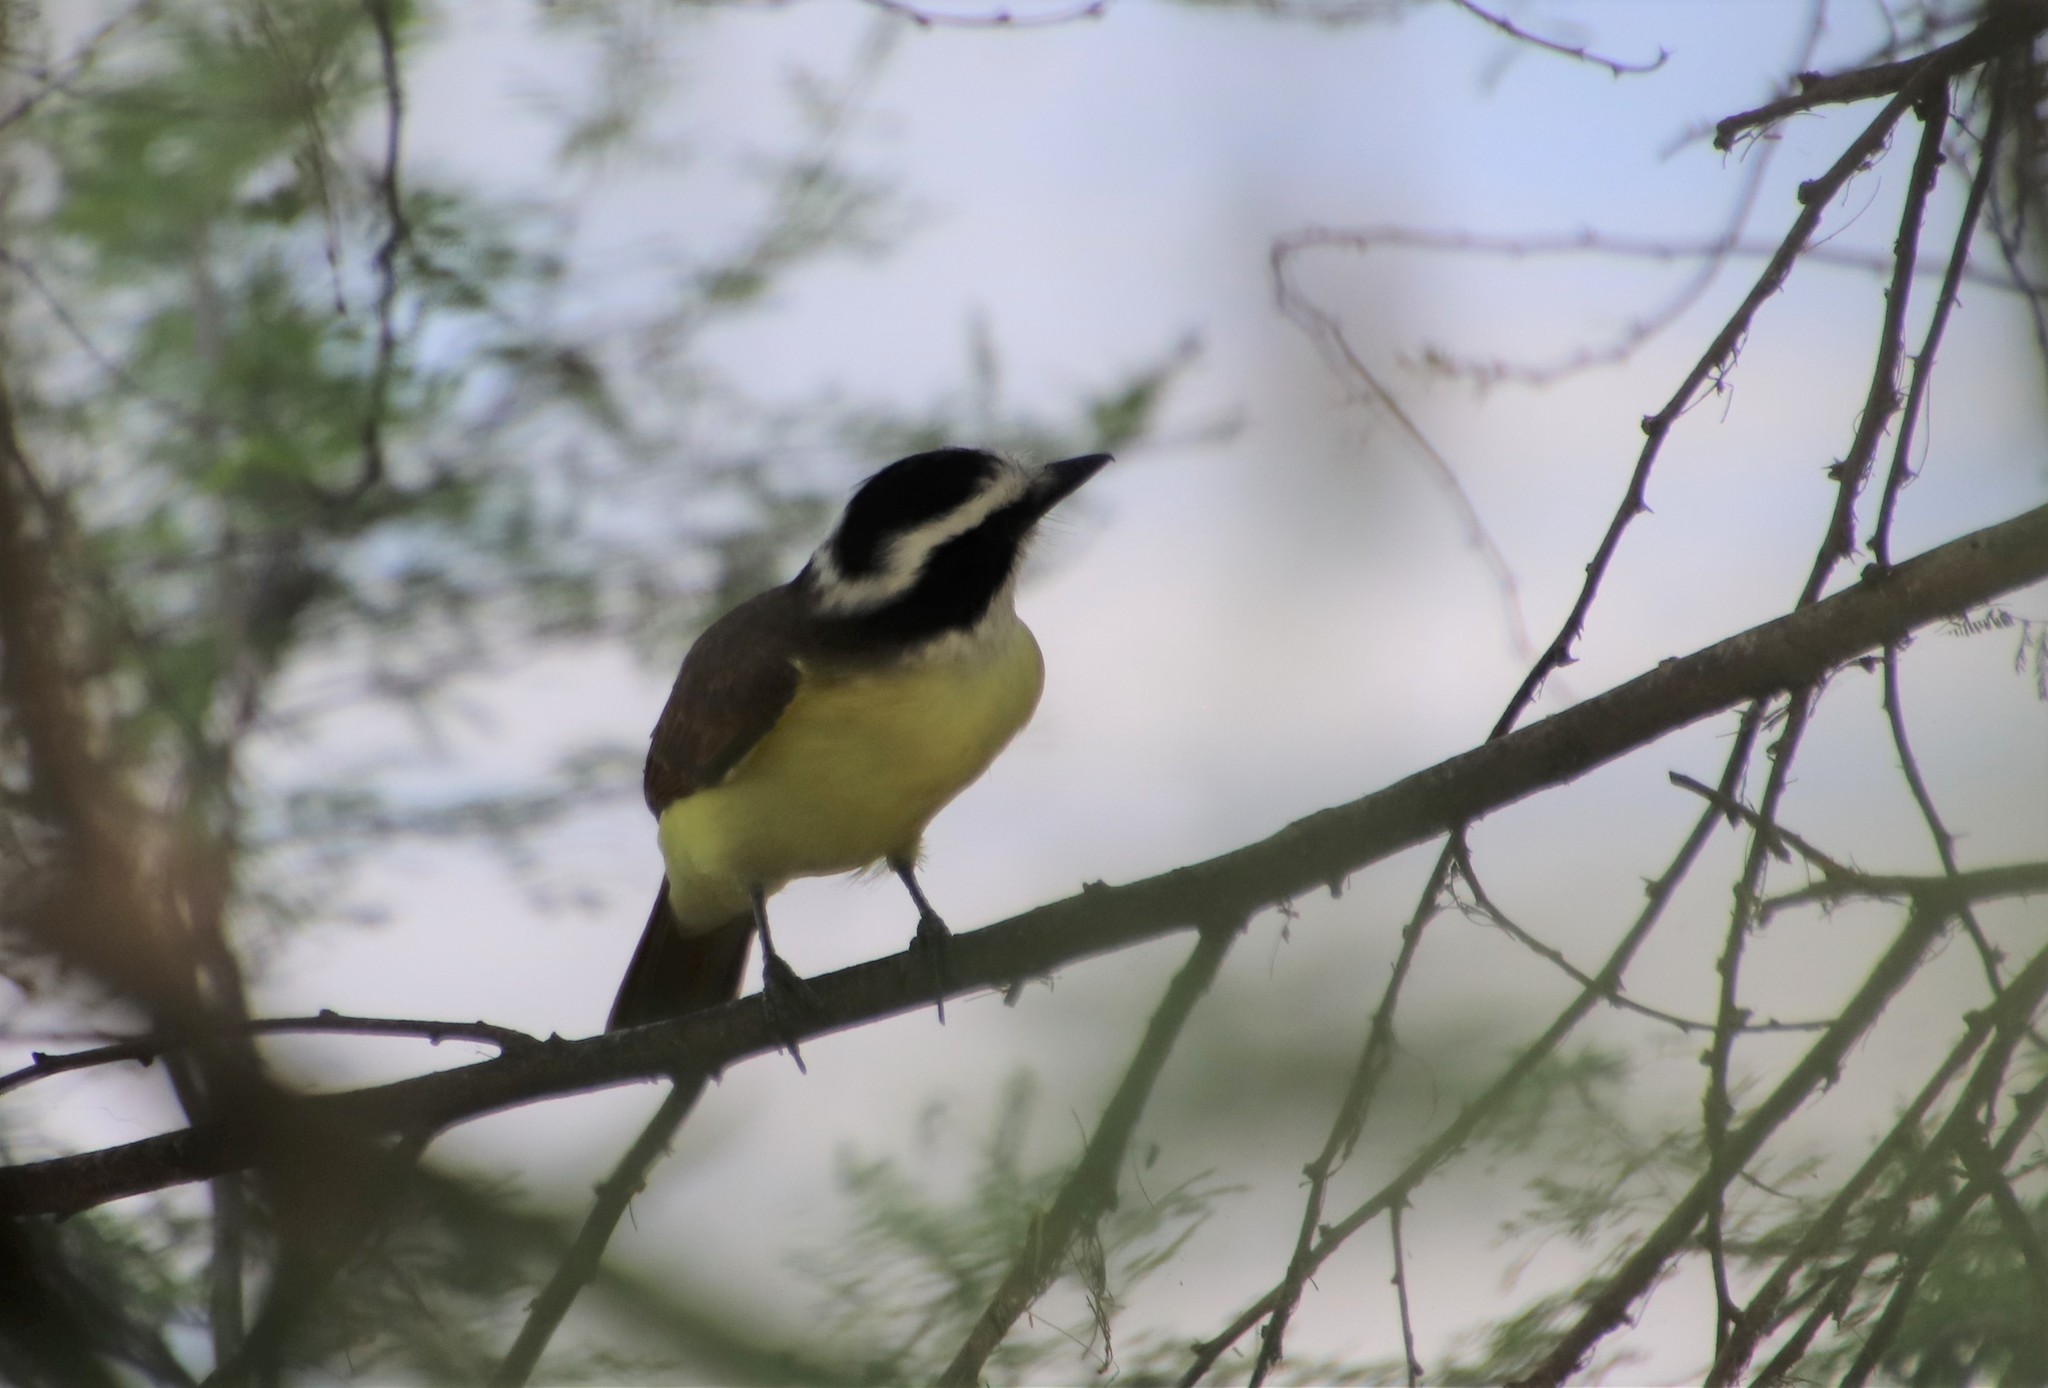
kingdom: Animalia
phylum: Chordata
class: Aves
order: Passeriformes
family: Tyrannidae
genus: Pitangus
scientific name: Pitangus sulphuratus
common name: Great kiskadee
